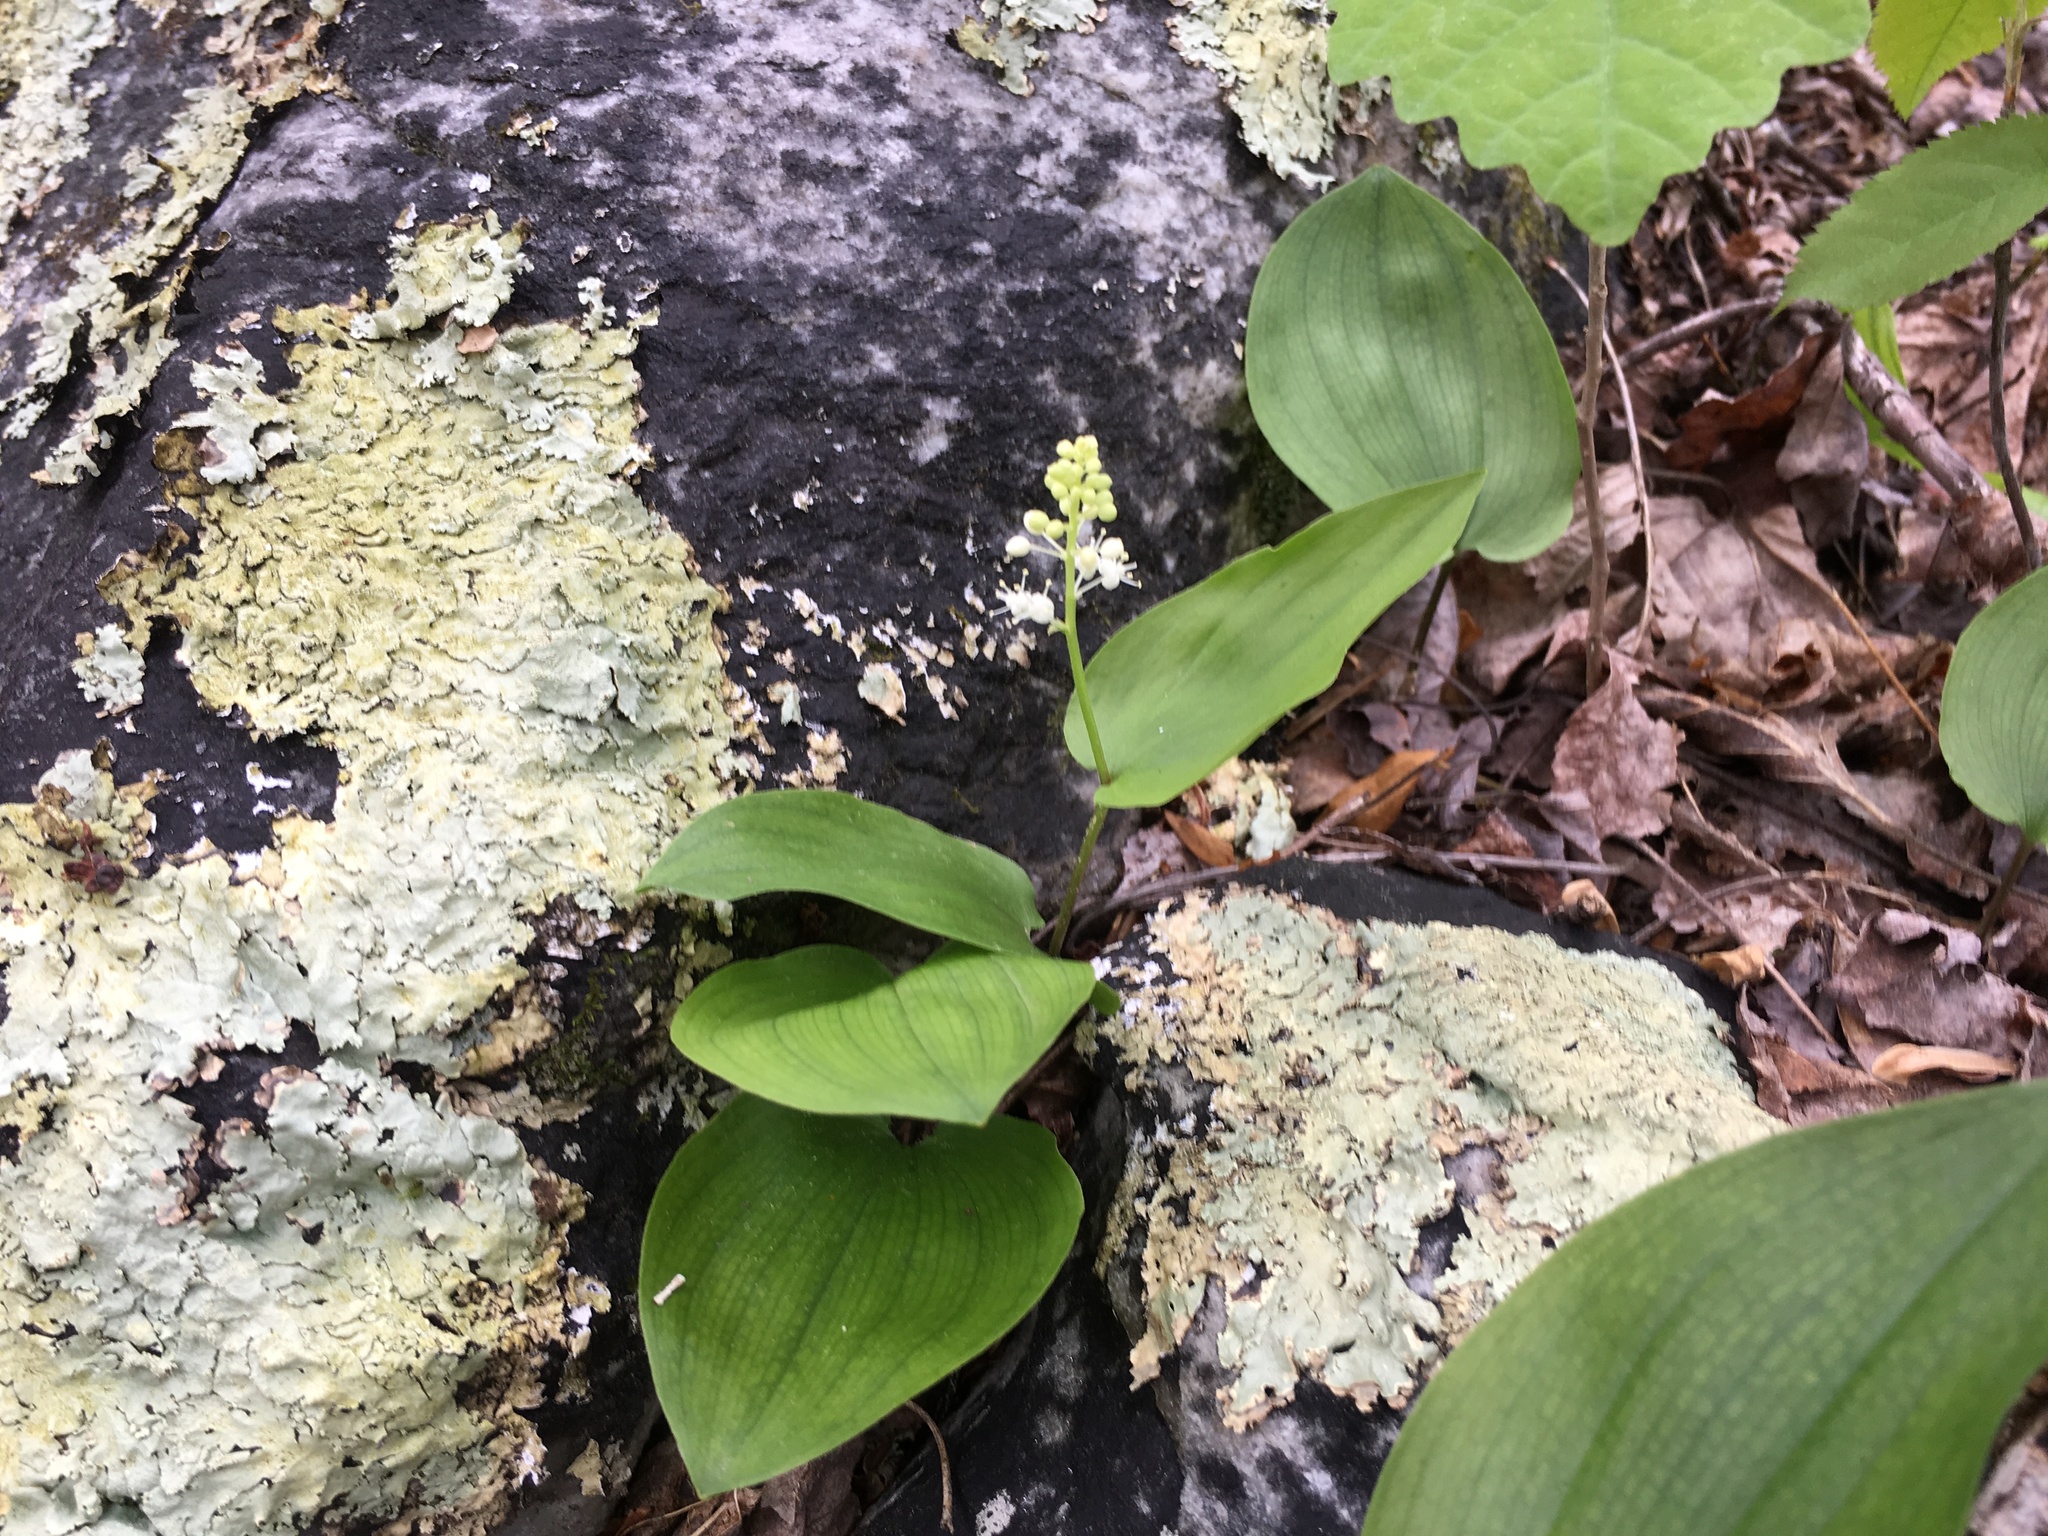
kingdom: Plantae
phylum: Tracheophyta
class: Liliopsida
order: Asparagales
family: Asparagaceae
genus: Maianthemum
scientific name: Maianthemum canadense
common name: False lily-of-the-valley
